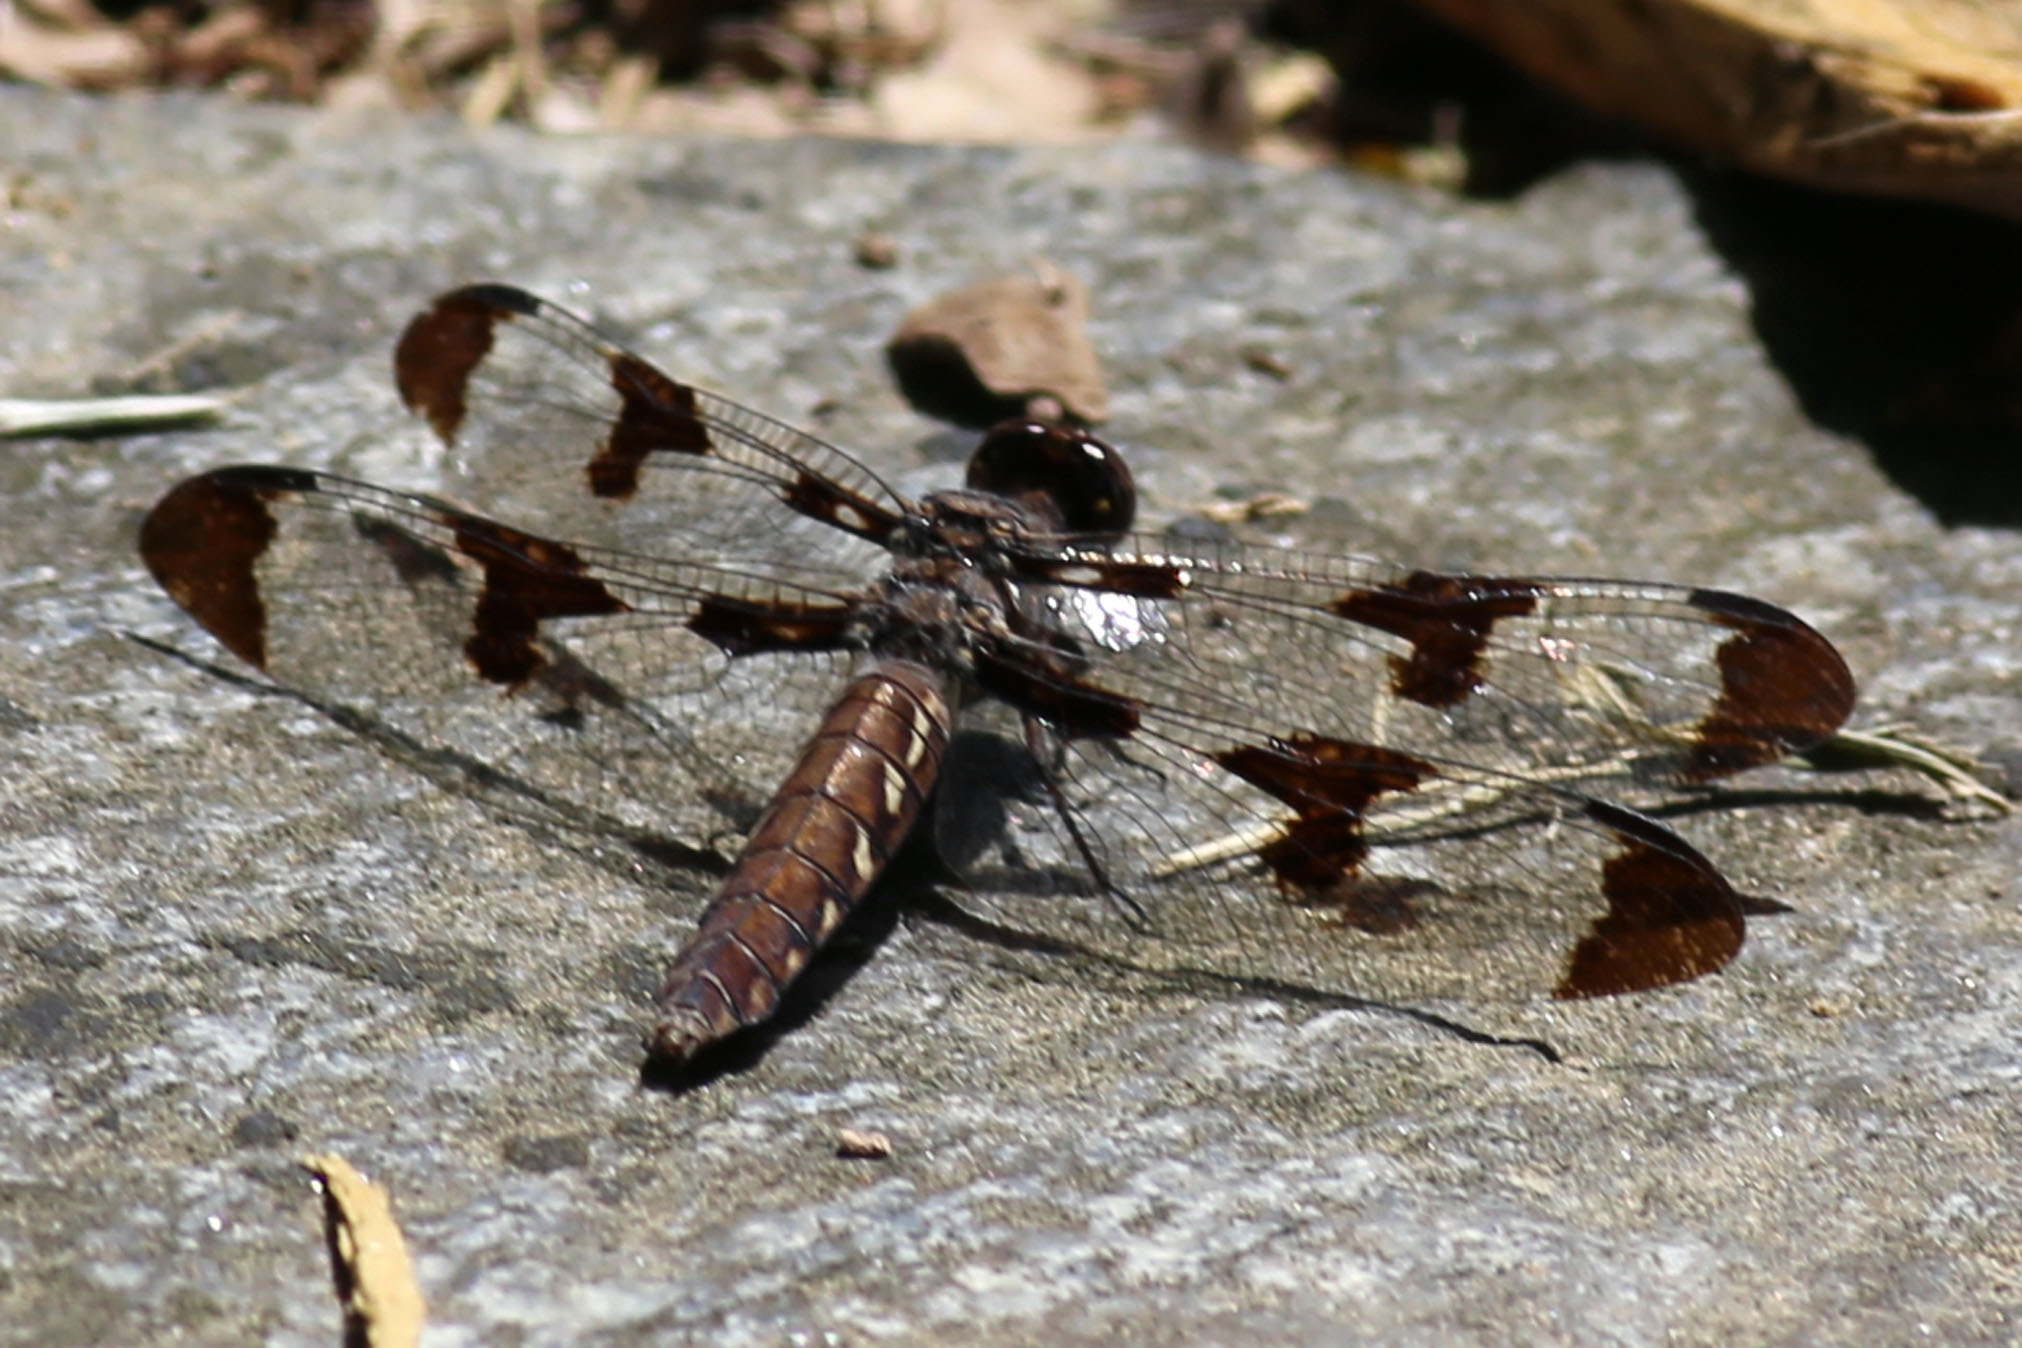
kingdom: Animalia
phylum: Arthropoda
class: Insecta
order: Odonata
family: Libellulidae
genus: Plathemis
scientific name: Plathemis lydia
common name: Common whitetail
